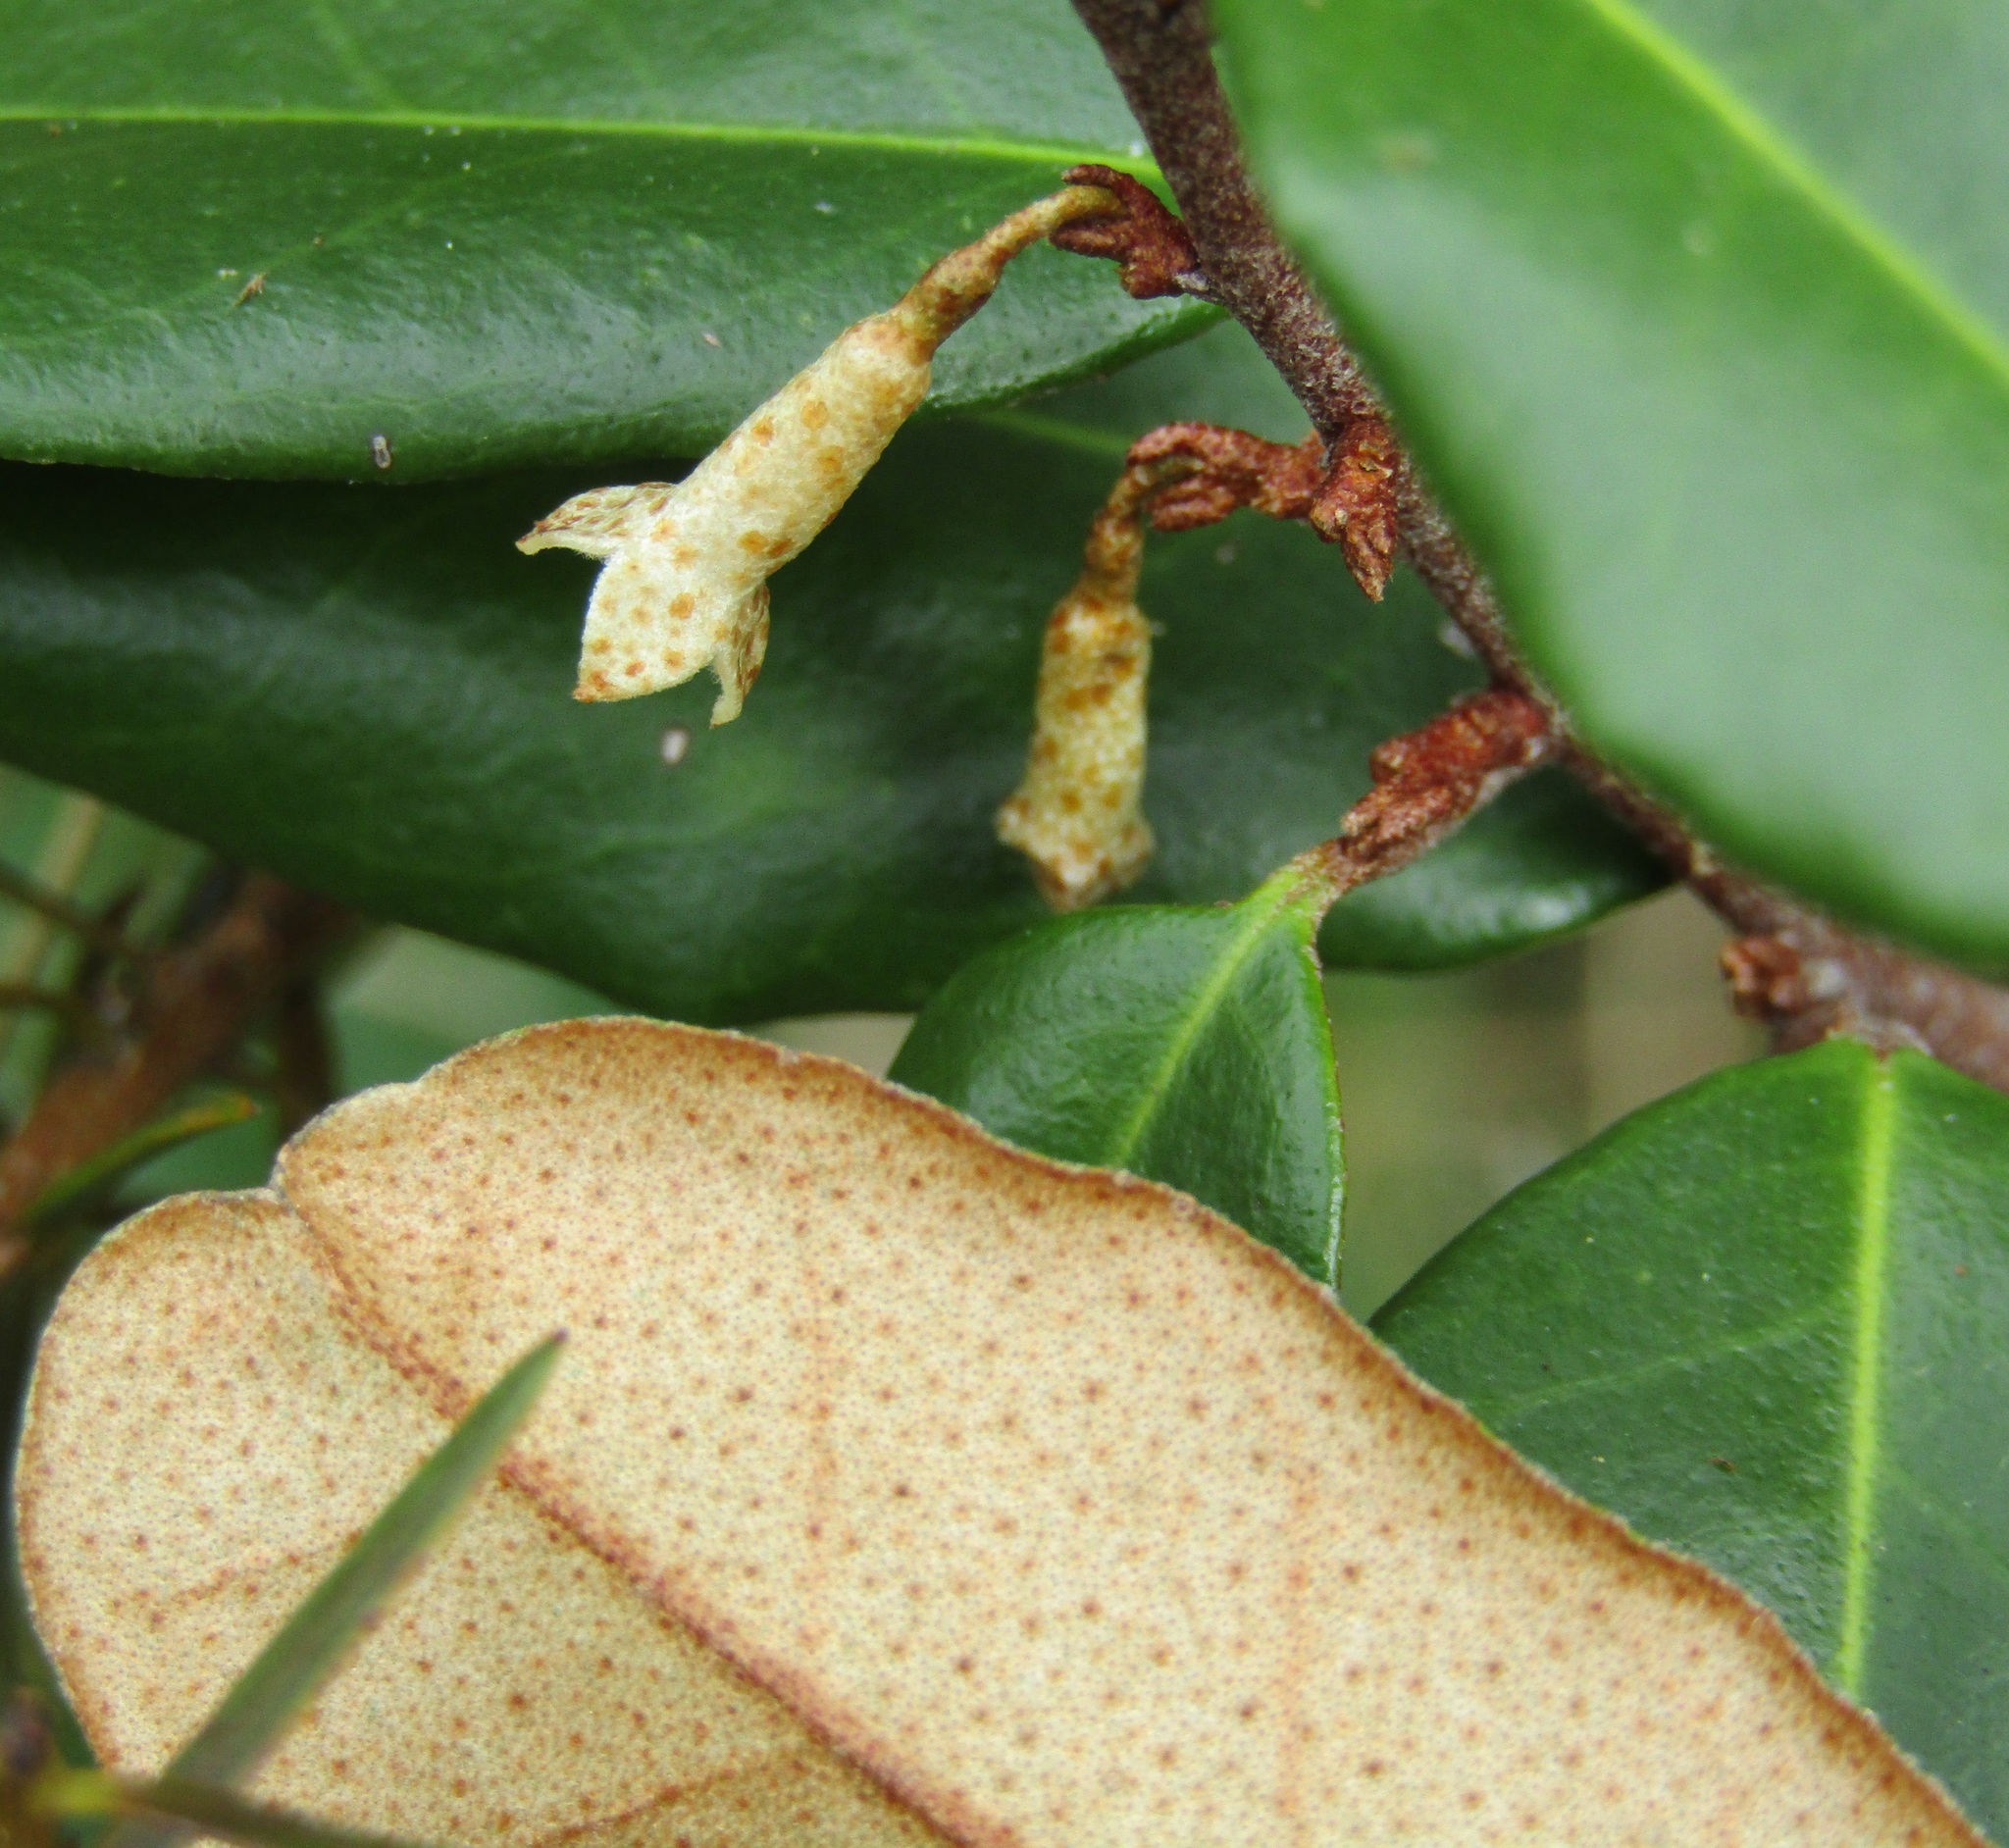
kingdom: Plantae
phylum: Tracheophyta
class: Magnoliopsida
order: Rosales
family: Elaeagnaceae
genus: Elaeagnus
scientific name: Elaeagnus reflexa
